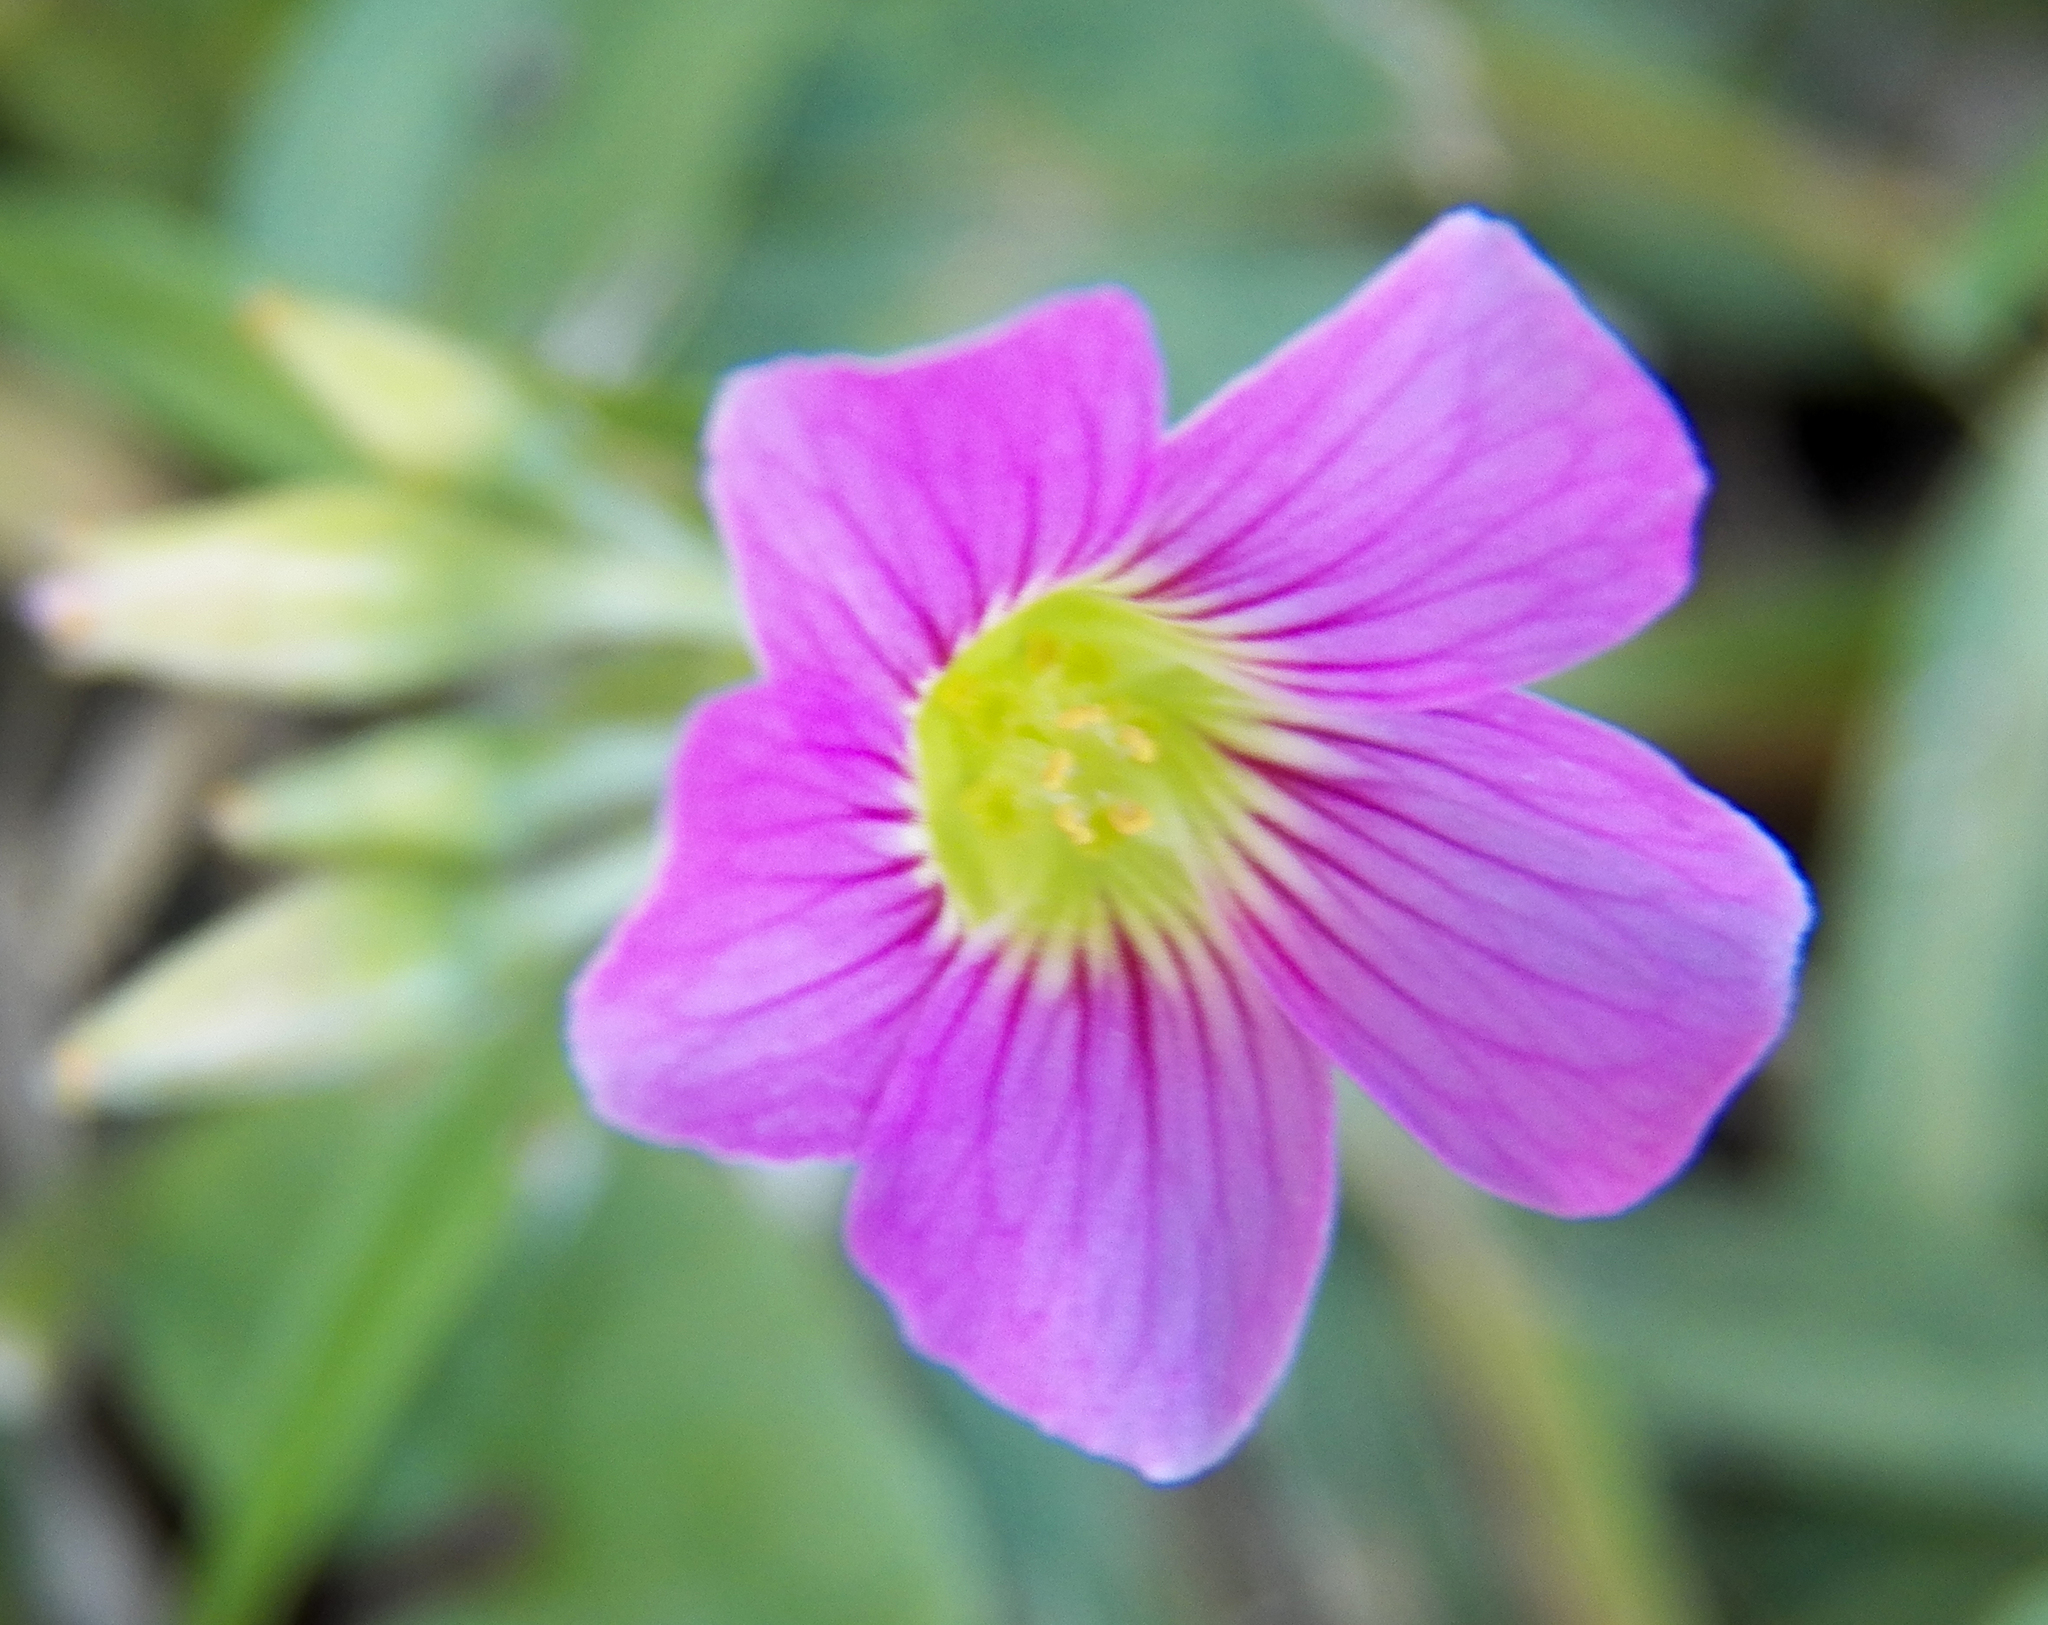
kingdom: Plantae
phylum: Tracheophyta
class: Magnoliopsida
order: Oxalidales
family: Oxalidaceae
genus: Oxalis
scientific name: Oxalis debilis
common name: Large-flowered pink-sorrel
